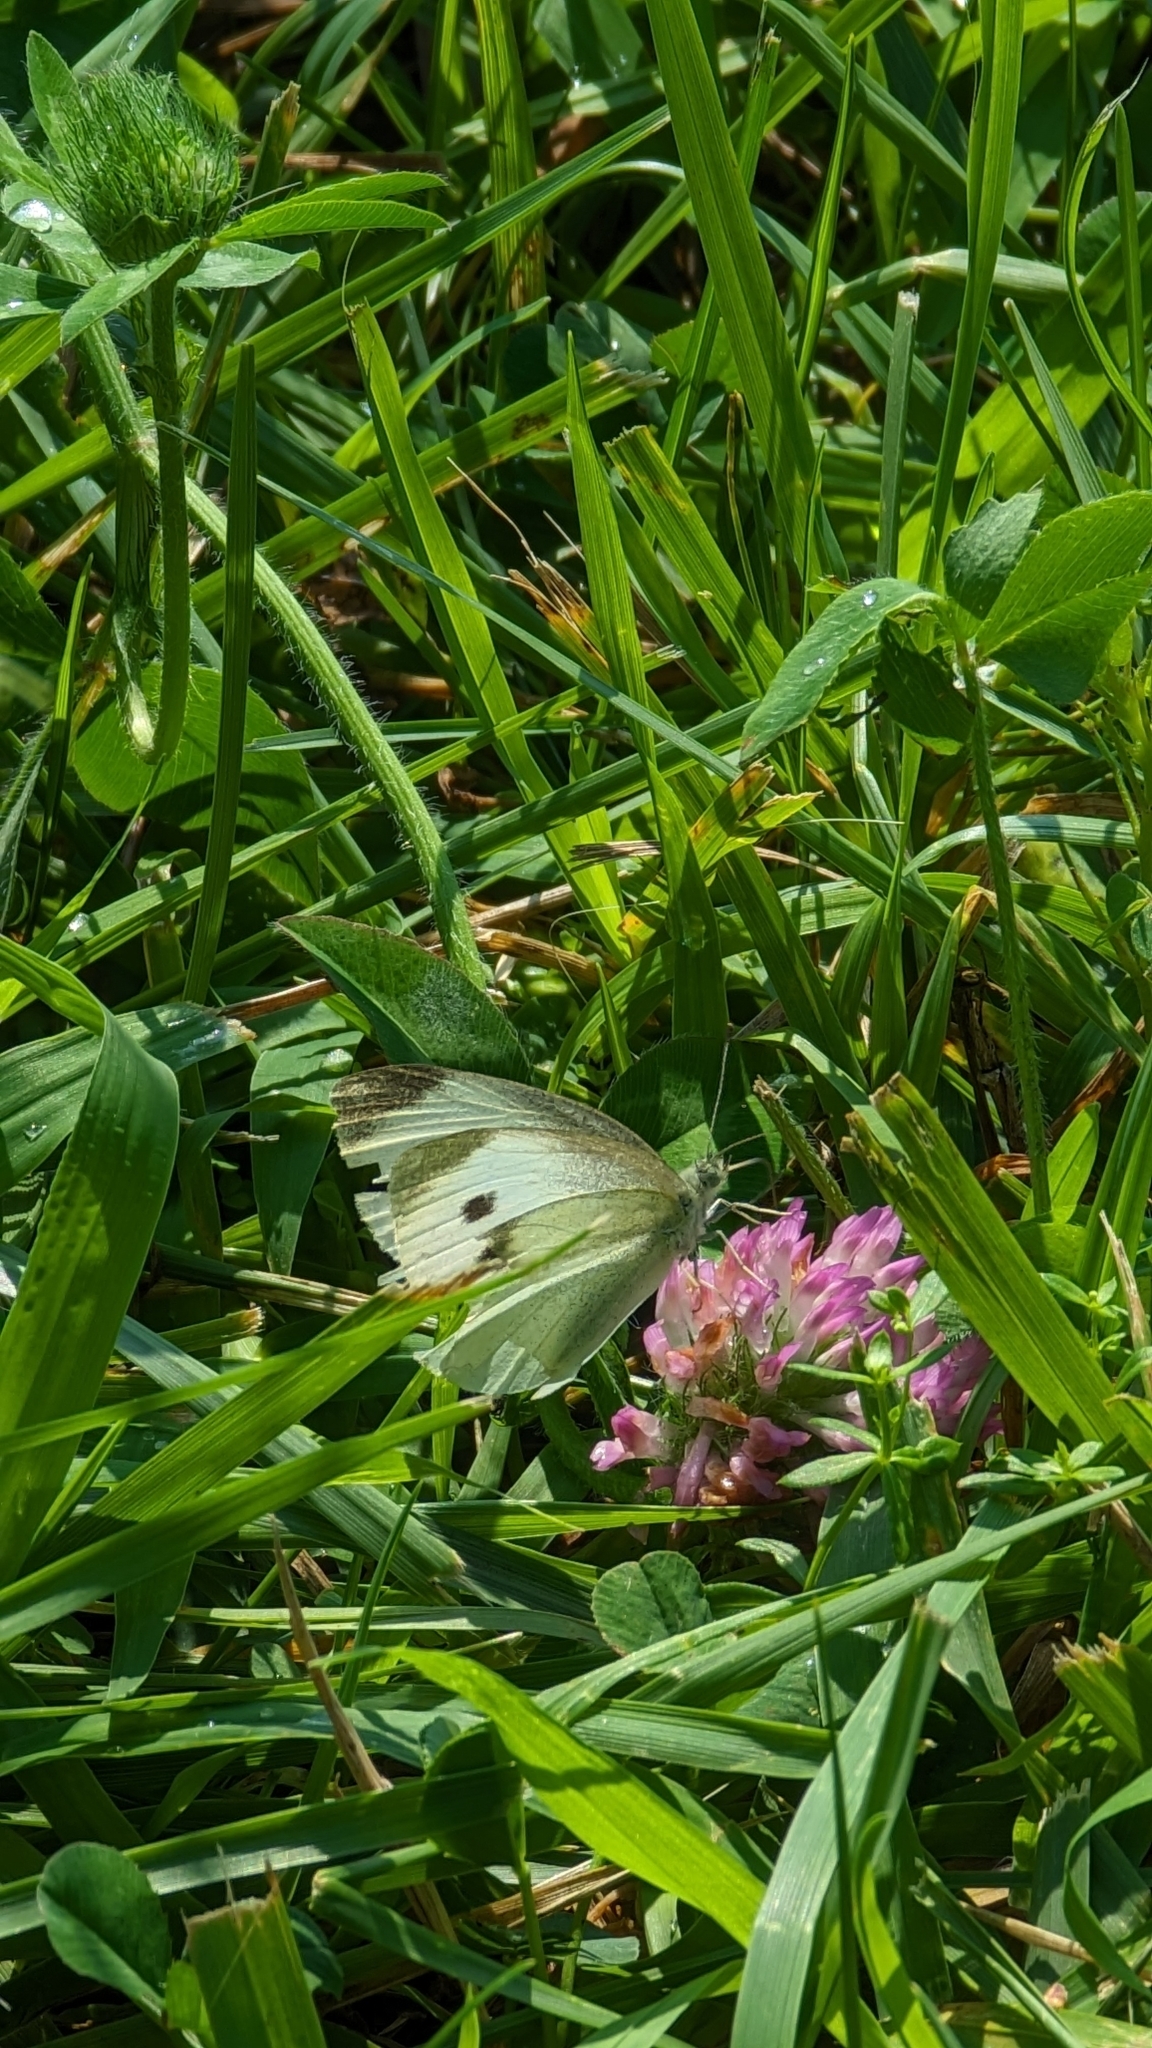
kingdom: Animalia
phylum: Arthropoda
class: Insecta
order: Lepidoptera
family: Pieridae
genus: Pieris
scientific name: Pieris rapae
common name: Small white
